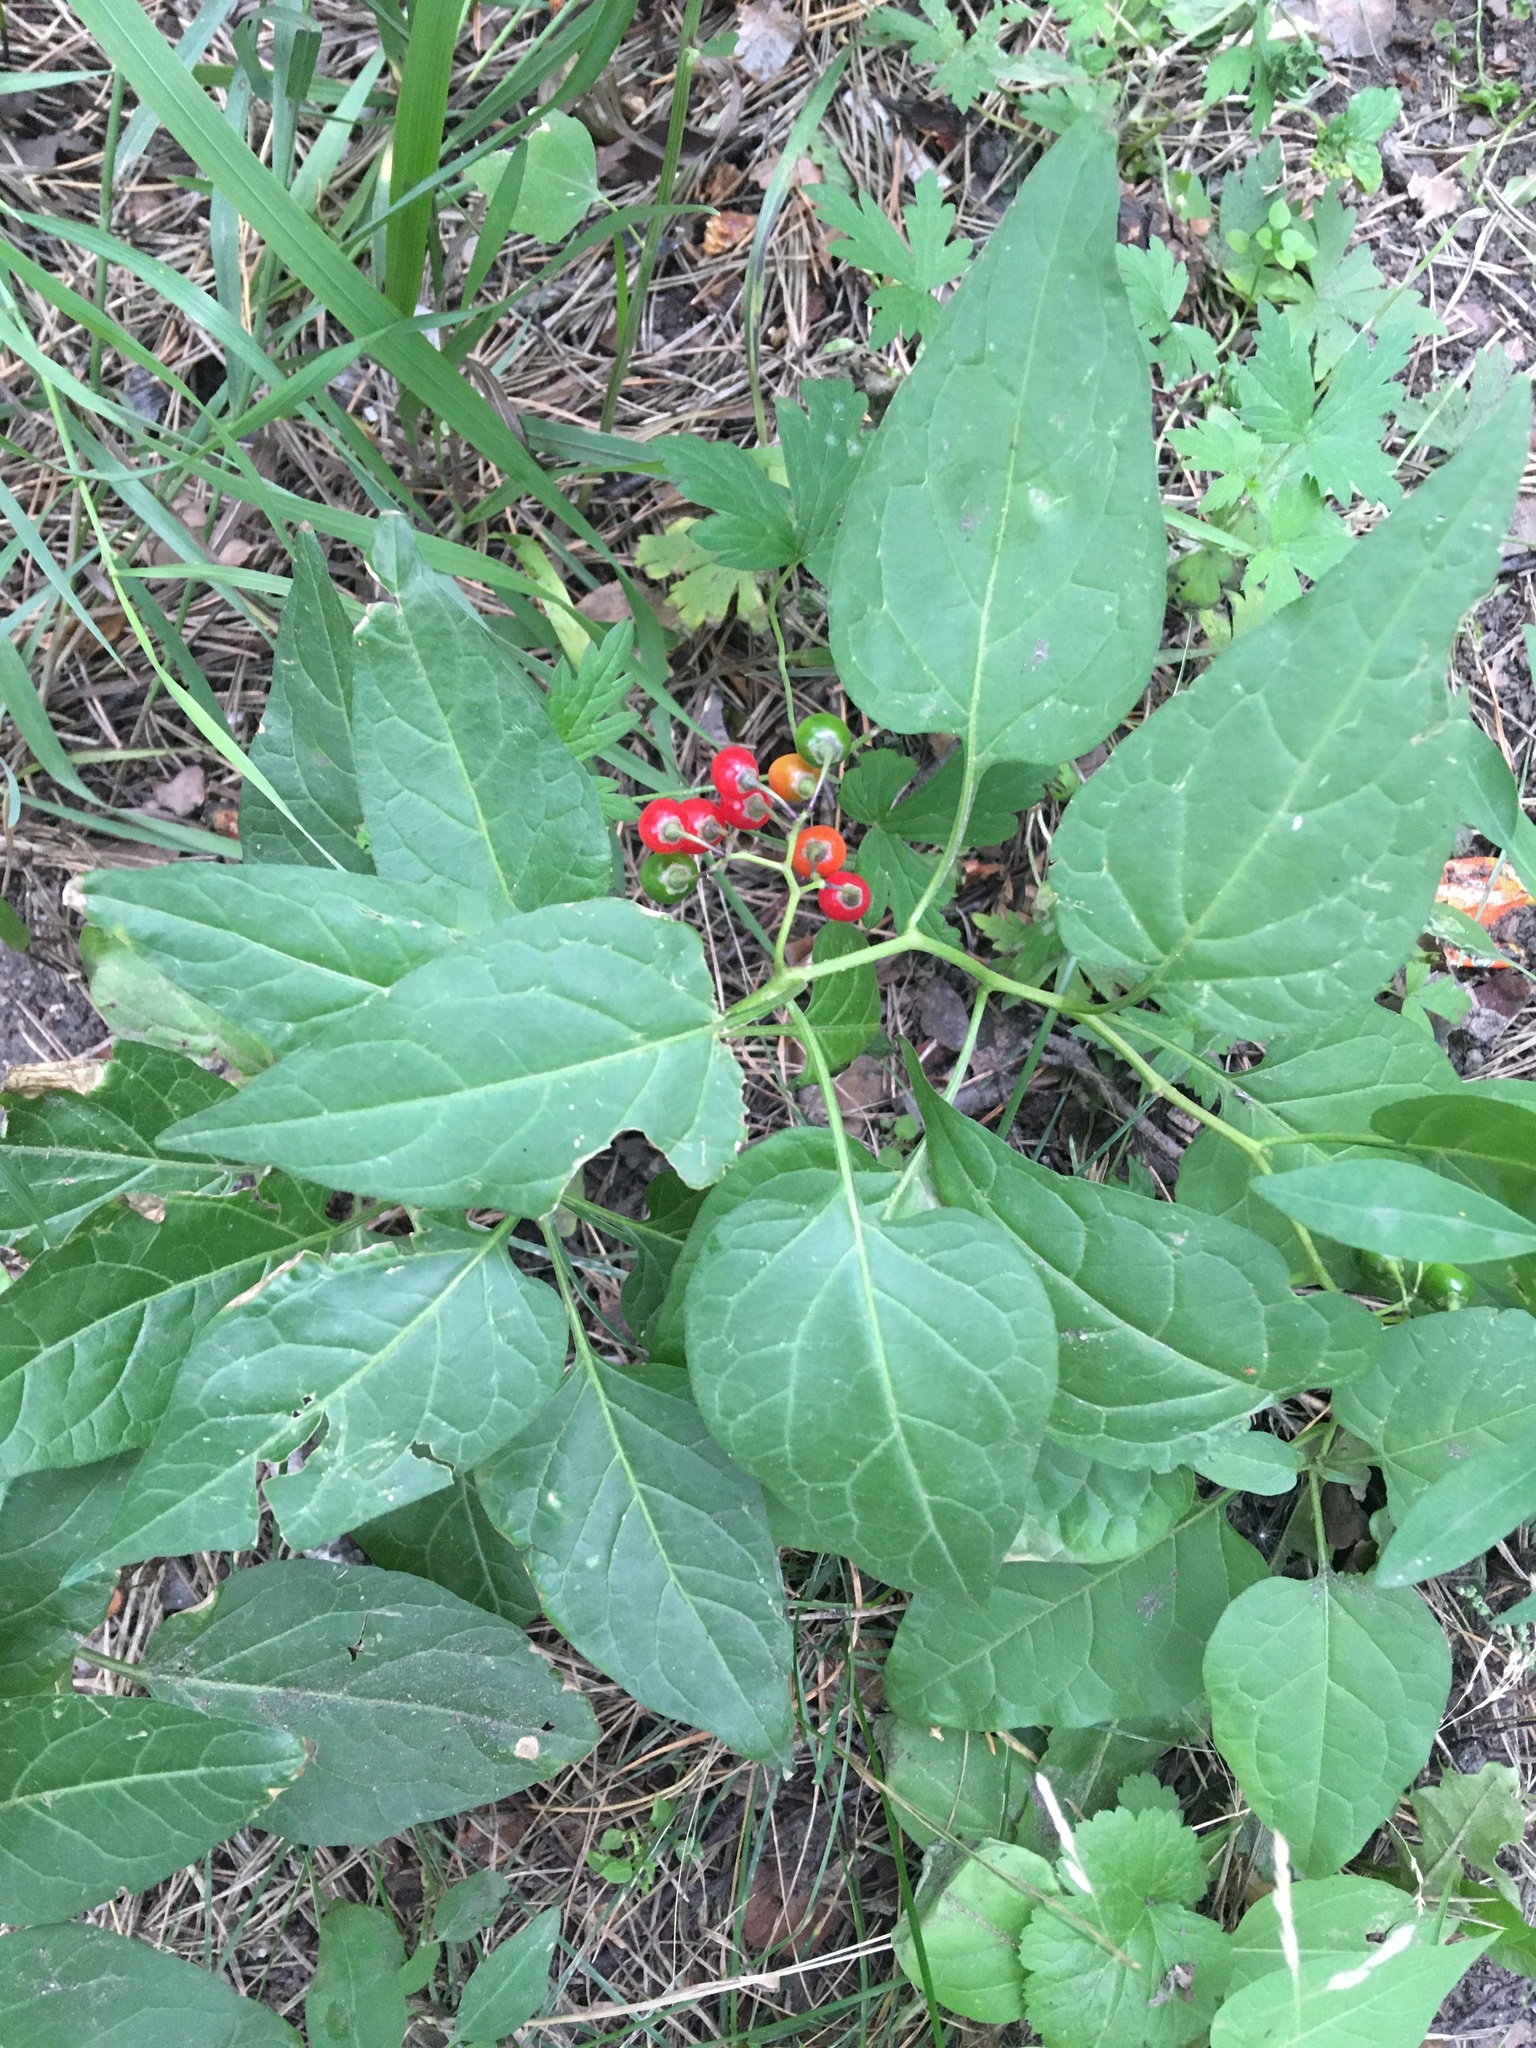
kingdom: Plantae
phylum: Tracheophyta
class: Magnoliopsida
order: Solanales
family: Solanaceae
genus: Solanum
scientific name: Solanum dulcamara
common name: Climbing nightshade
